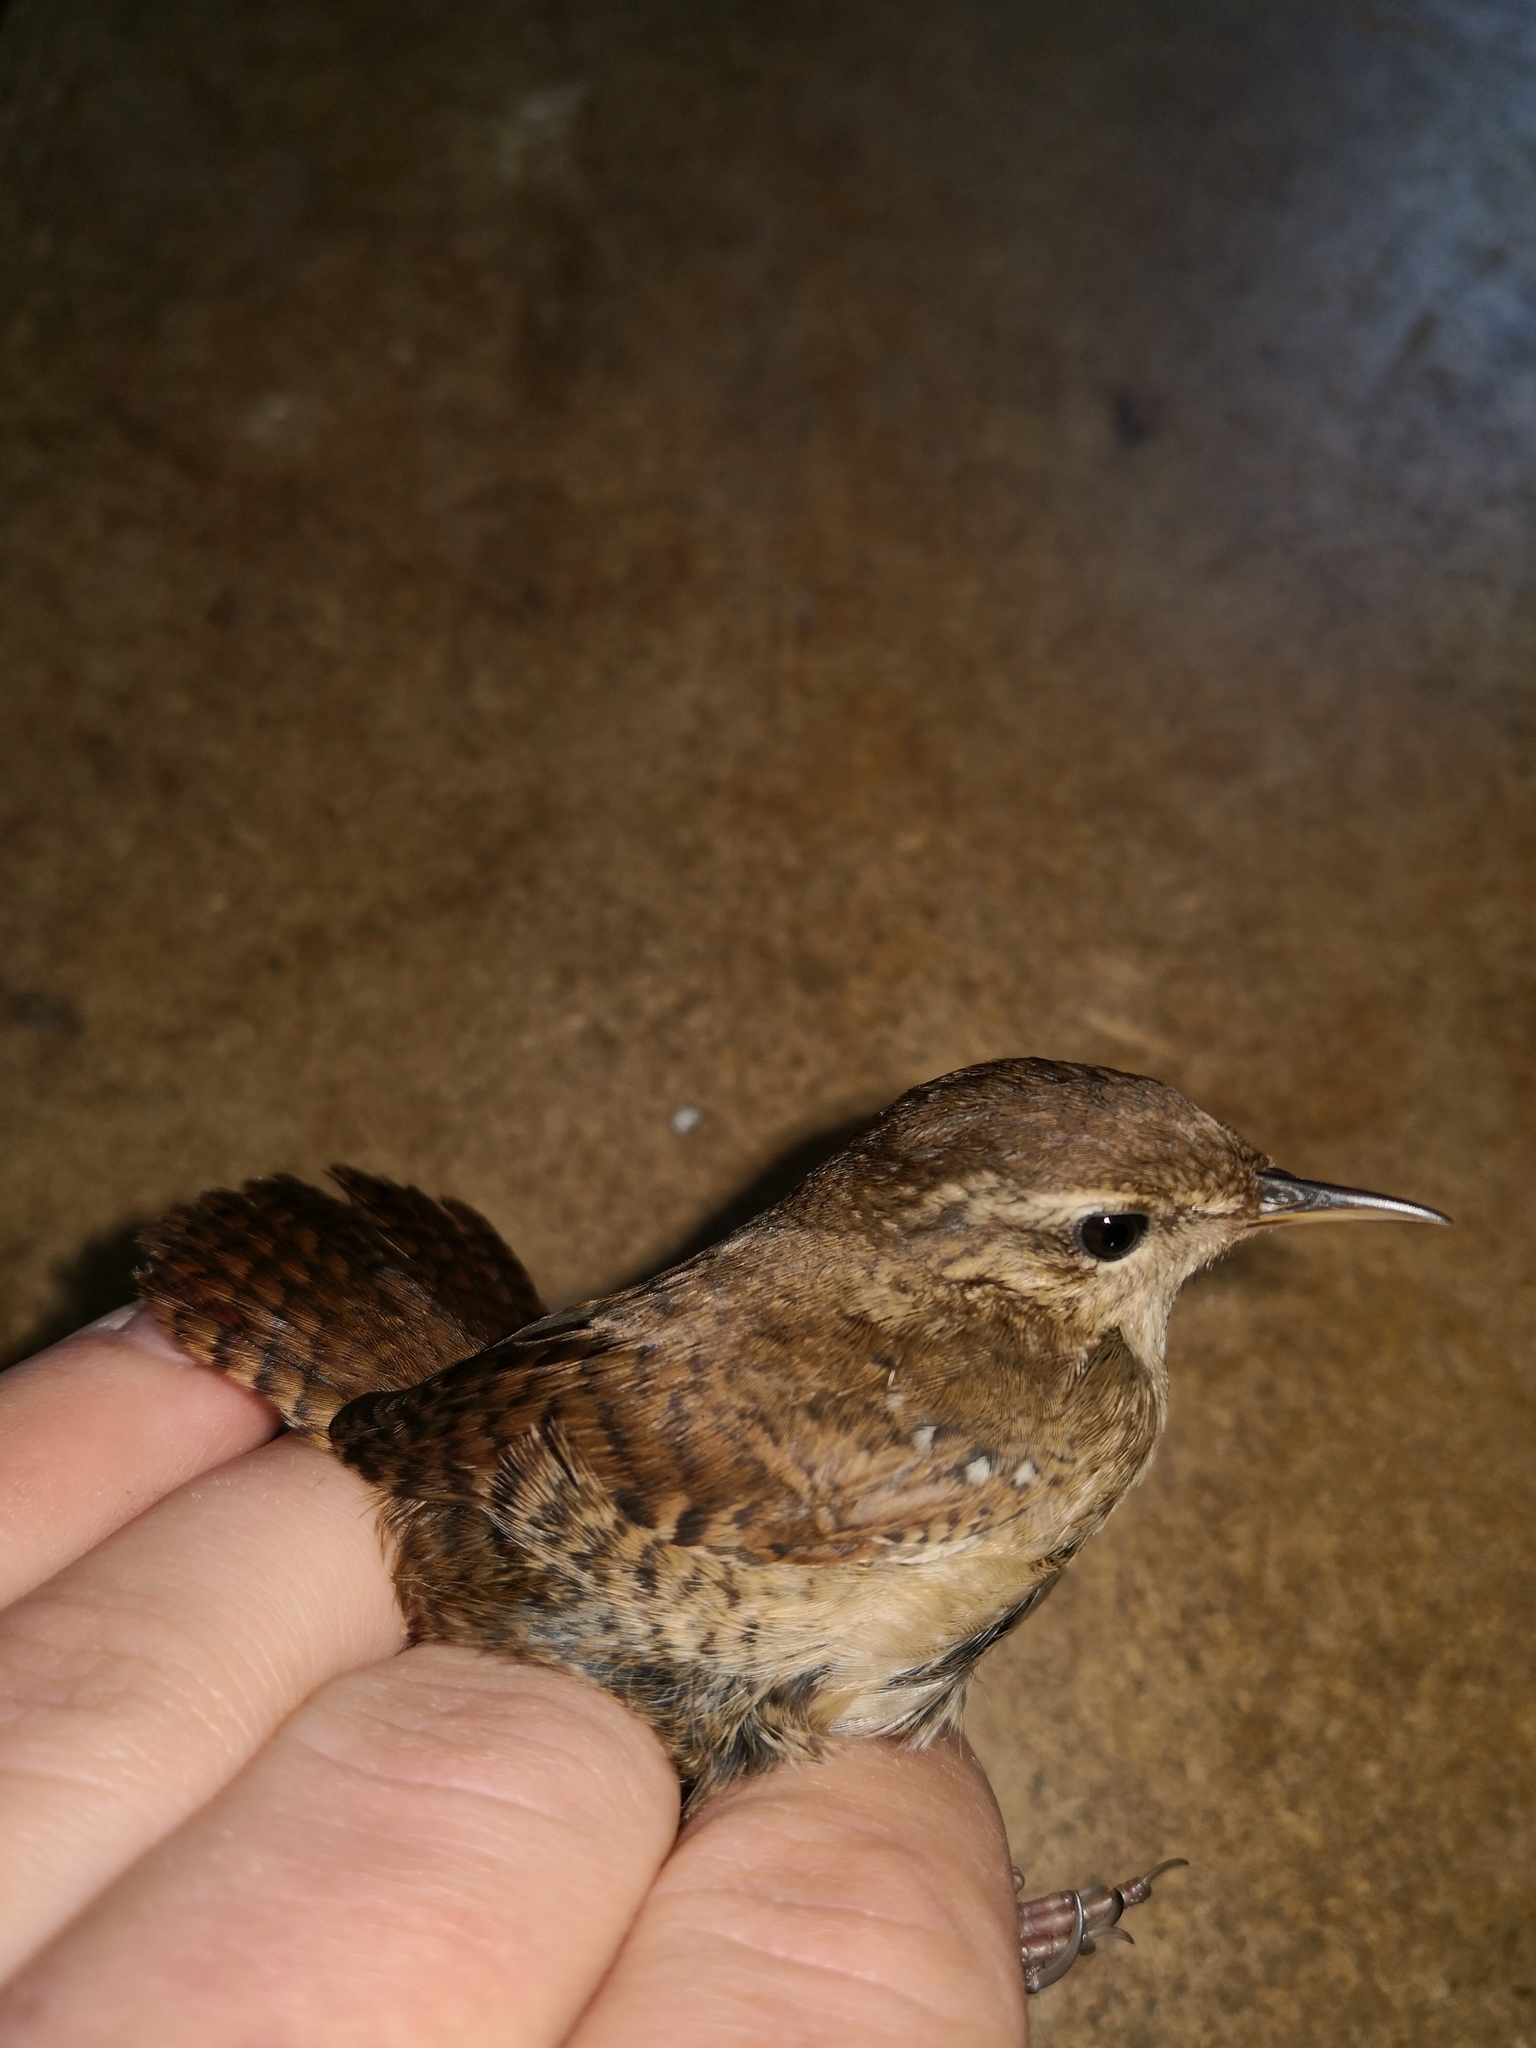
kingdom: Animalia
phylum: Chordata
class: Aves
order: Passeriformes
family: Troglodytidae
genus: Troglodytes
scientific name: Troglodytes troglodytes
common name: Eurasian wren
